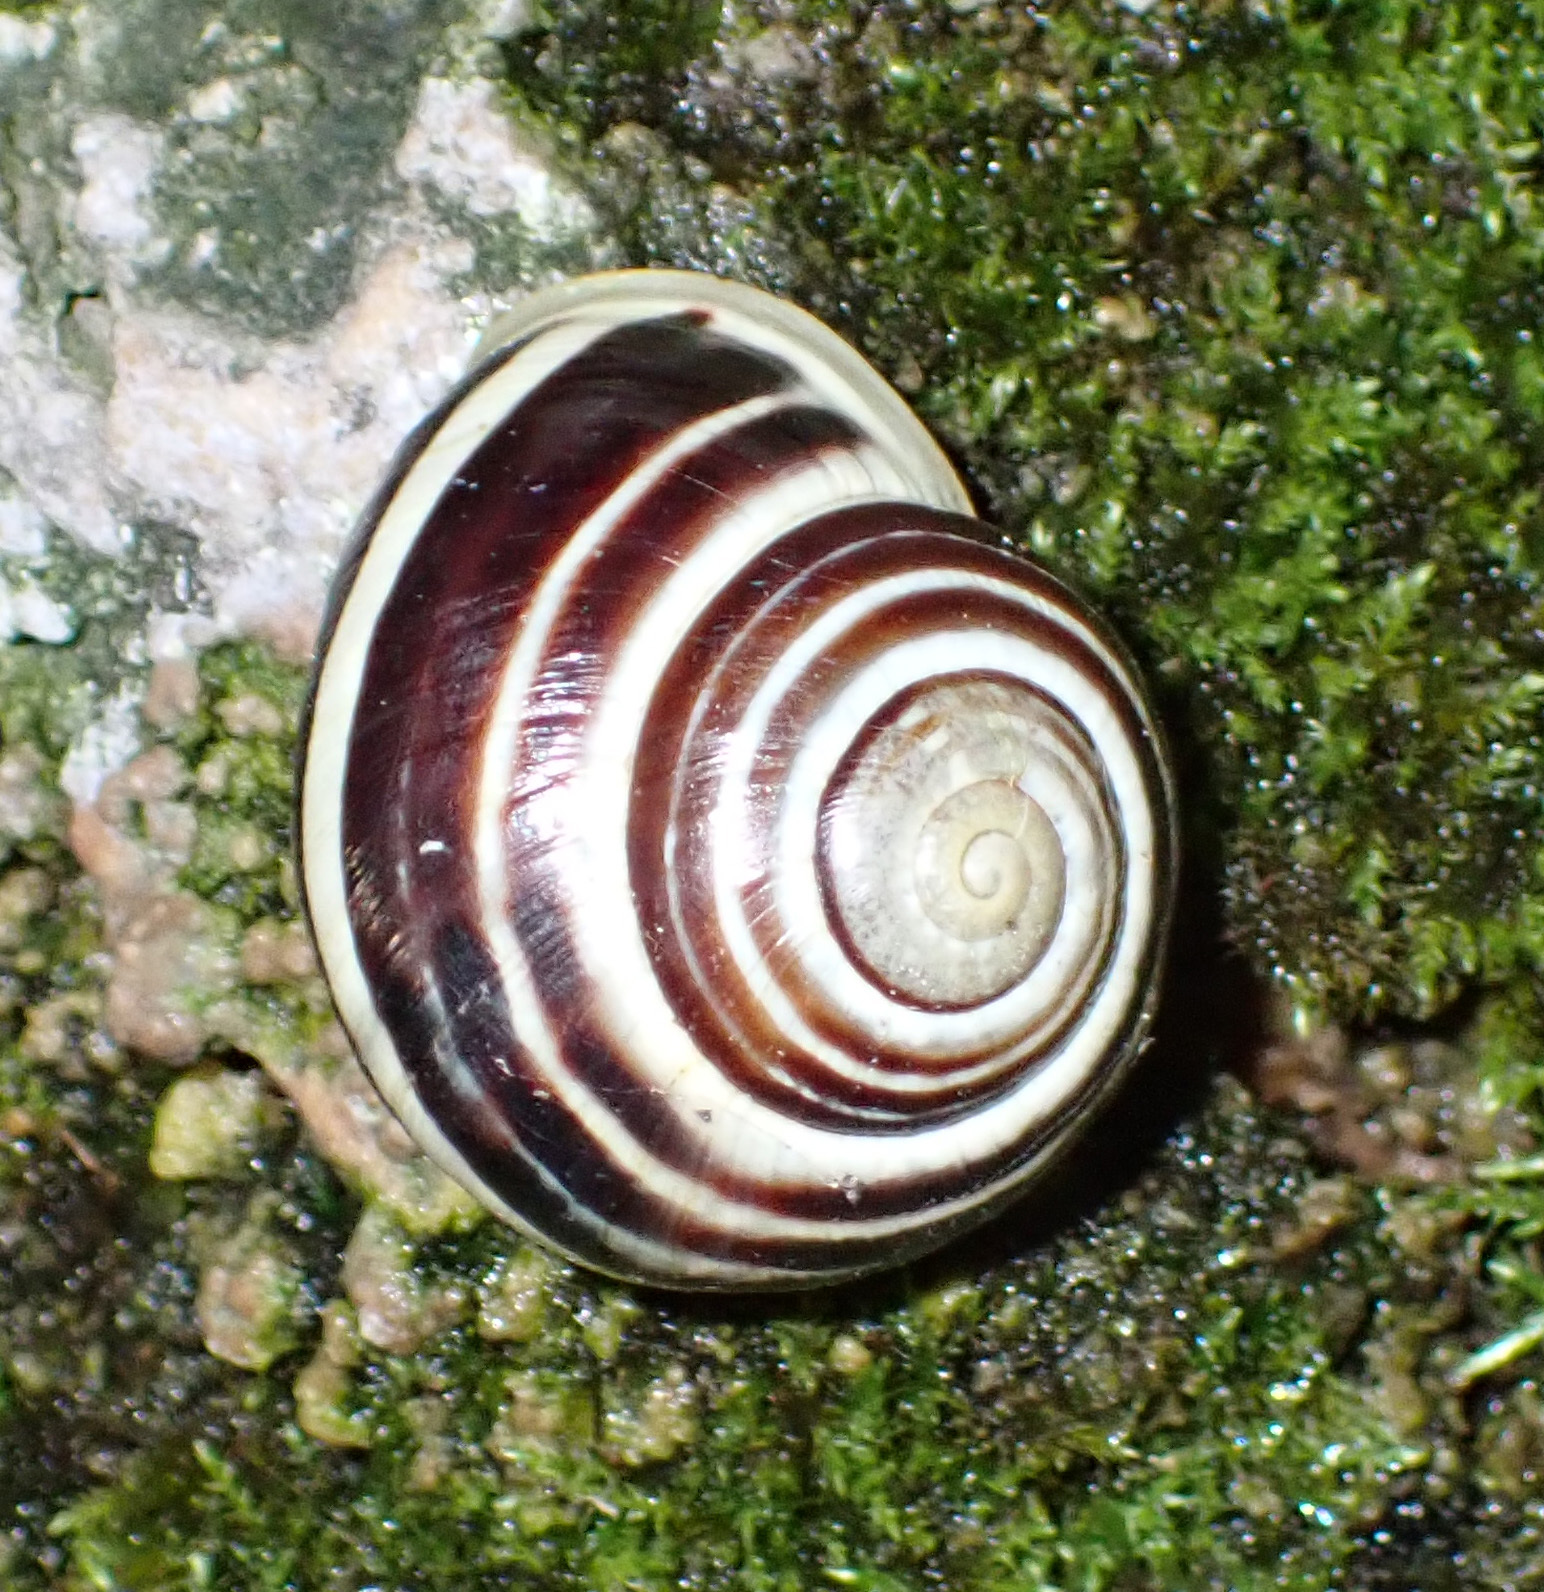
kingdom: Animalia
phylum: Mollusca
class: Gastropoda
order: Stylommatophora
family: Helicidae
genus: Cepaea
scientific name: Cepaea hortensis
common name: White-lip gardensnail
